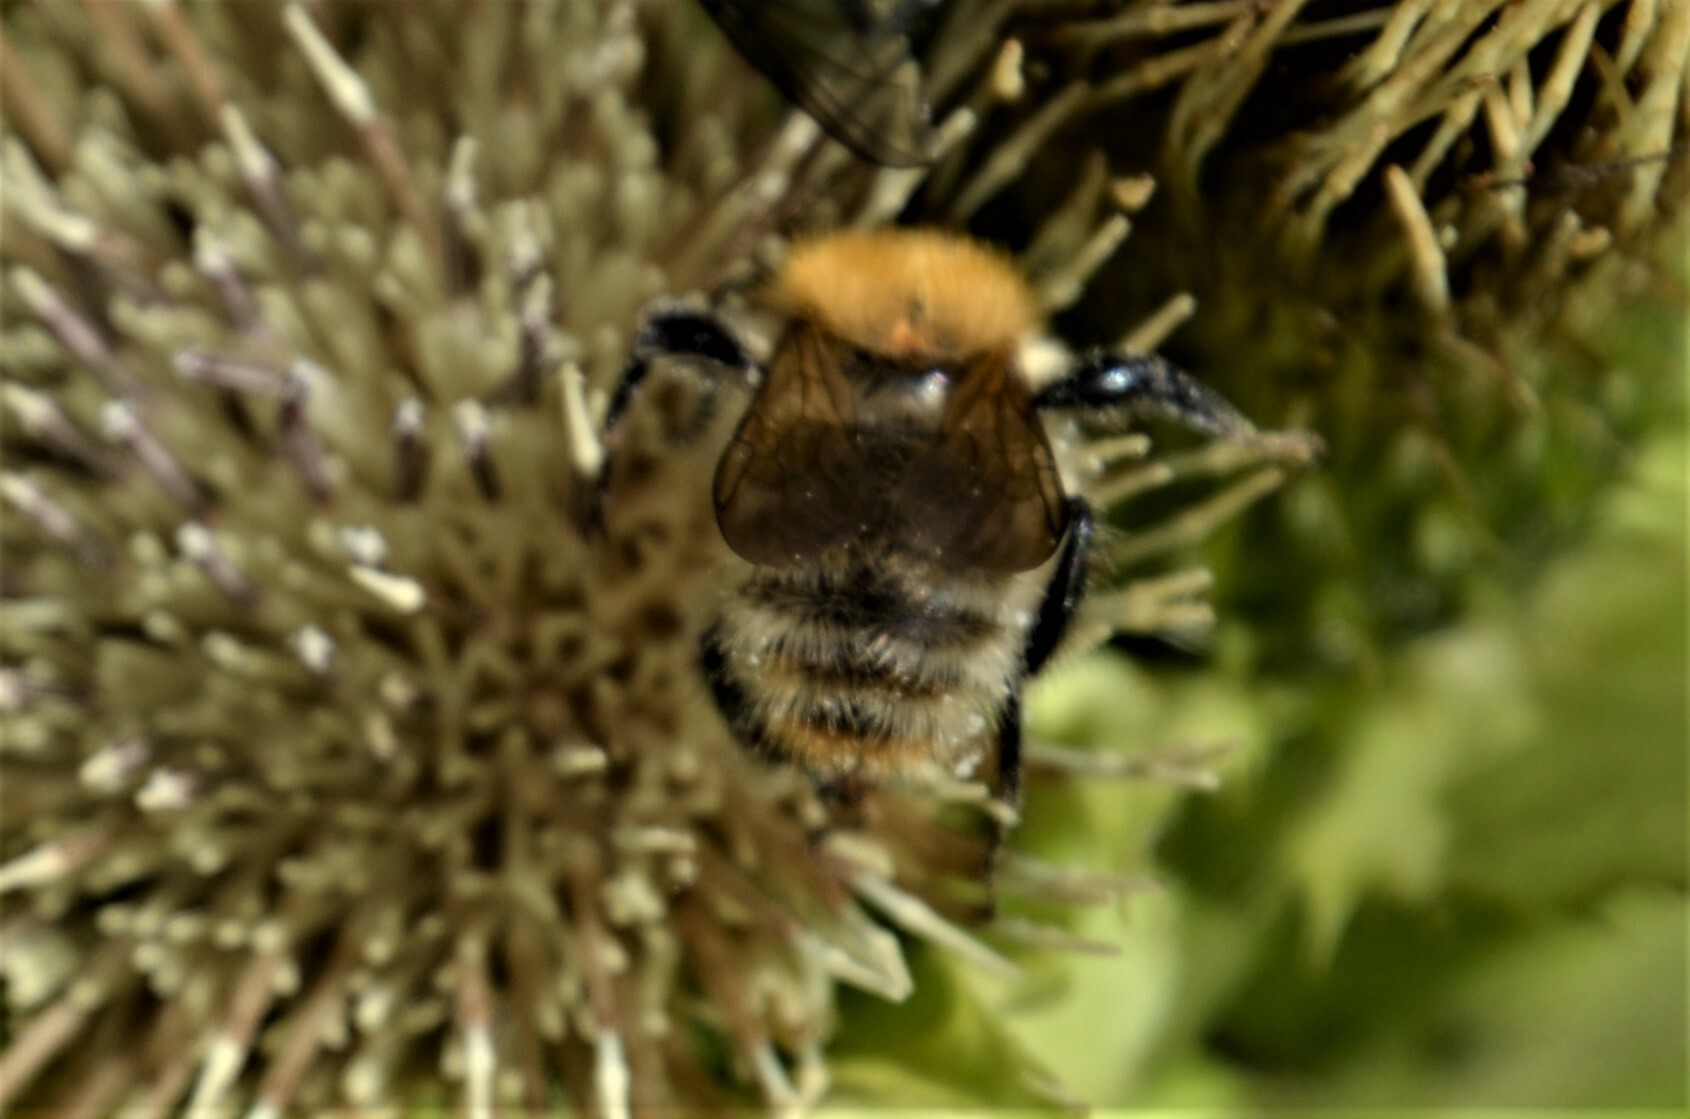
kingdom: Animalia
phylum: Arthropoda
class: Insecta
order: Hymenoptera
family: Apidae
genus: Bombus
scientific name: Bombus pascuorum
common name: Common carder bee
